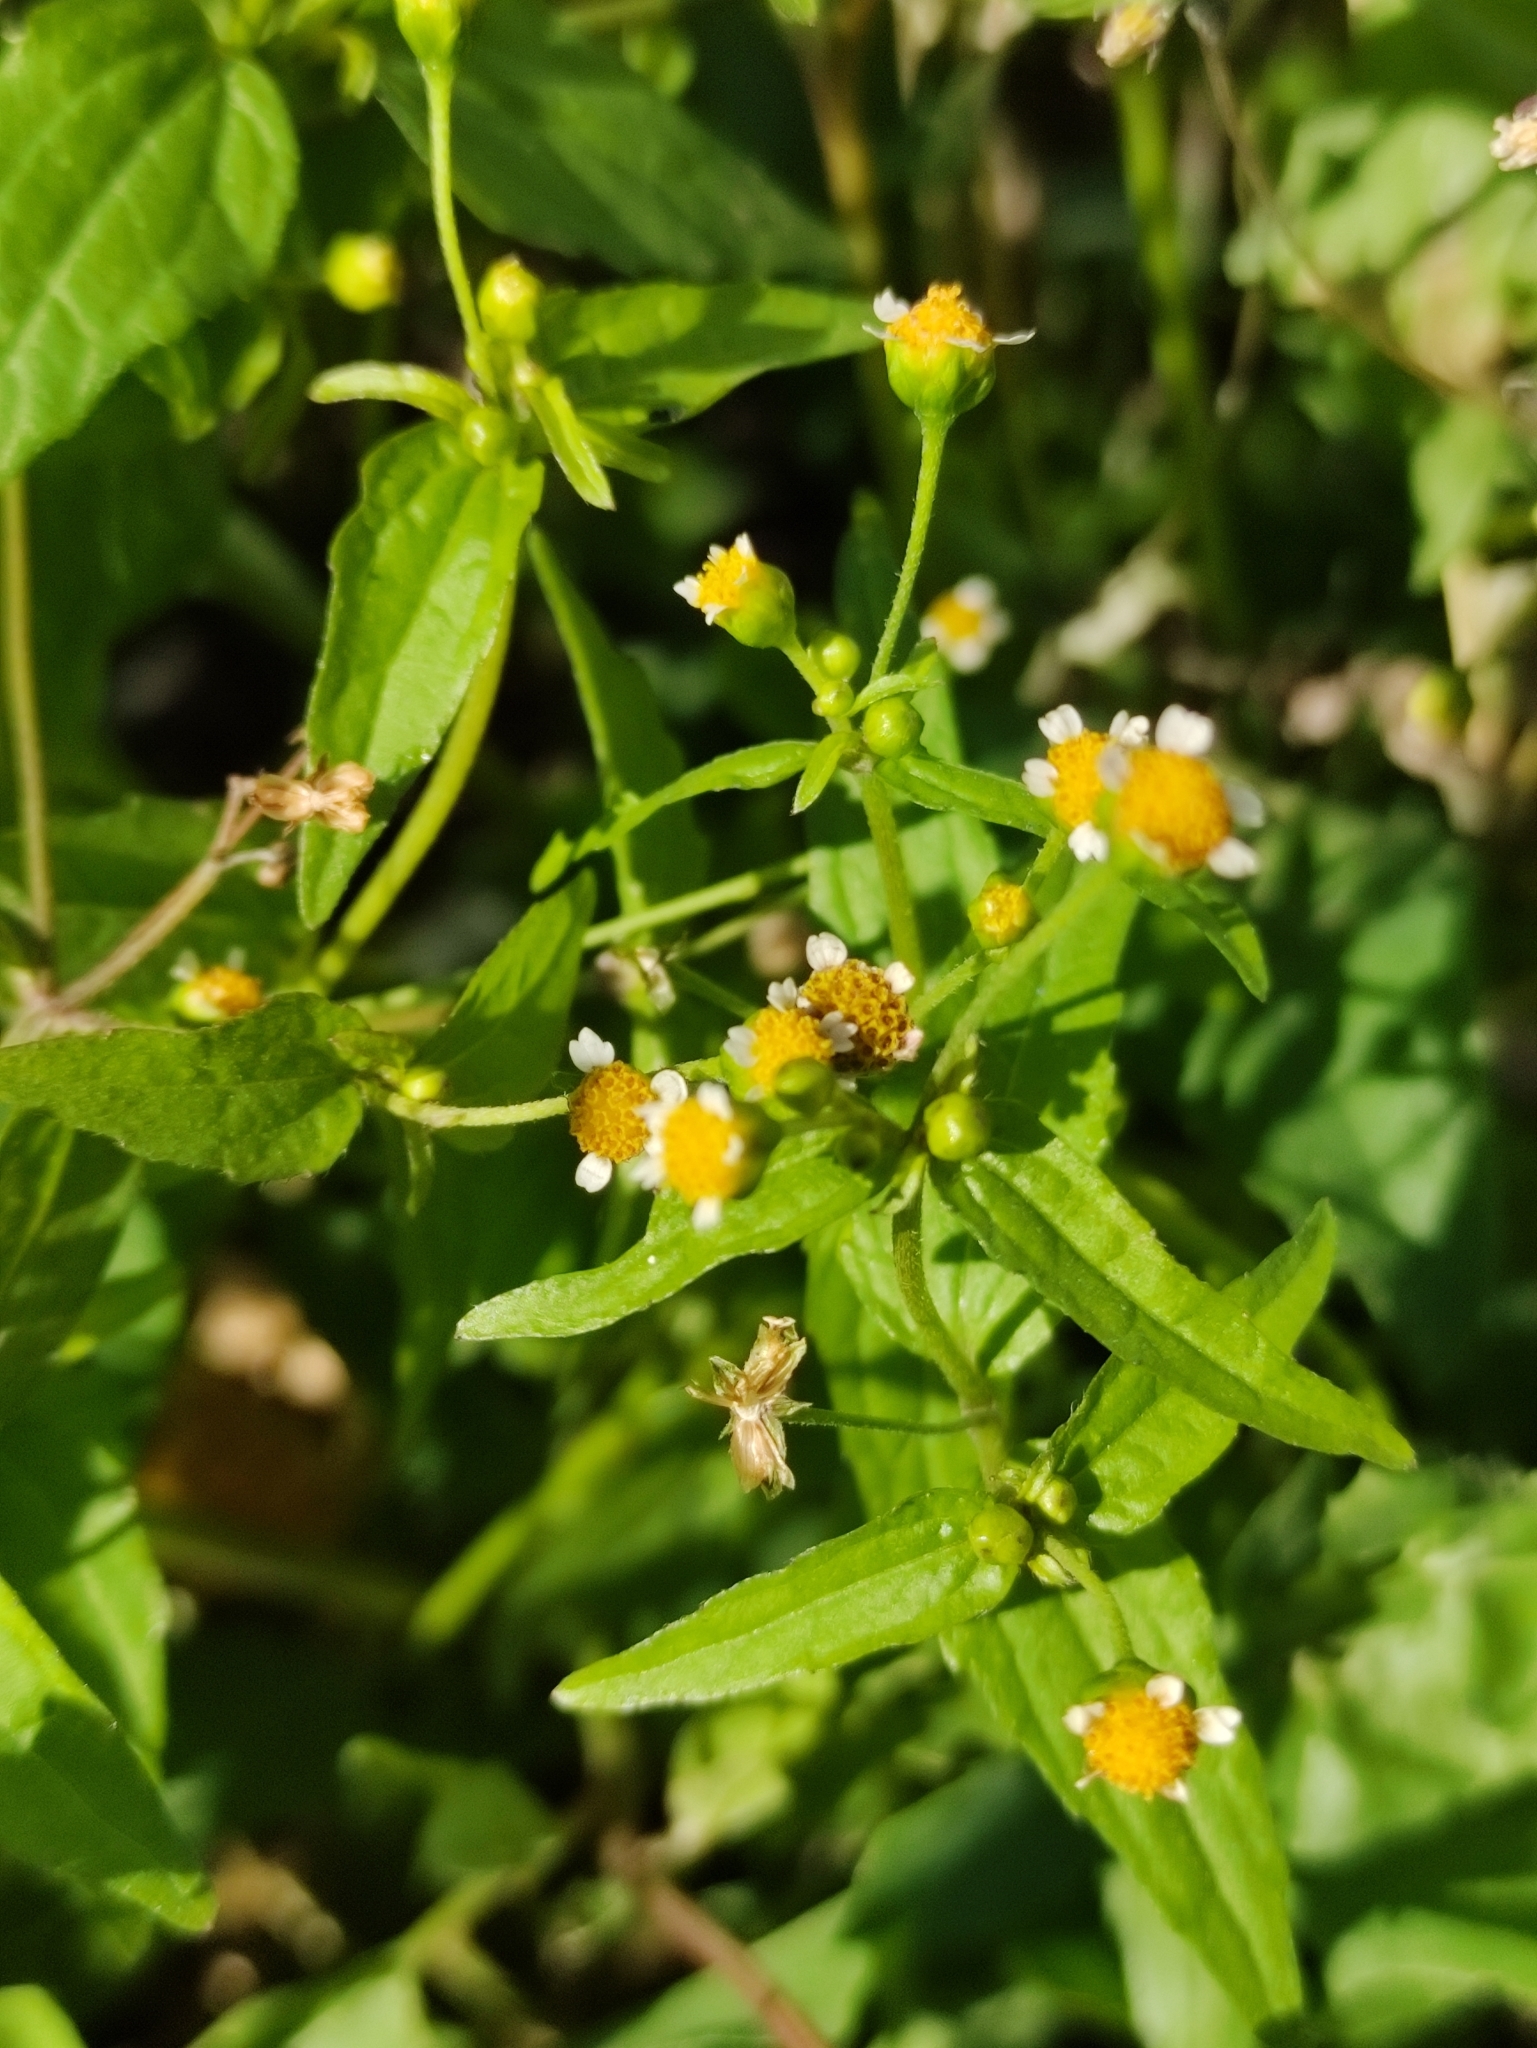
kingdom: Plantae
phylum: Tracheophyta
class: Magnoliopsida
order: Asterales
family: Asteraceae
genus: Galinsoga
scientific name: Galinsoga parviflora
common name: Gallant soldier
